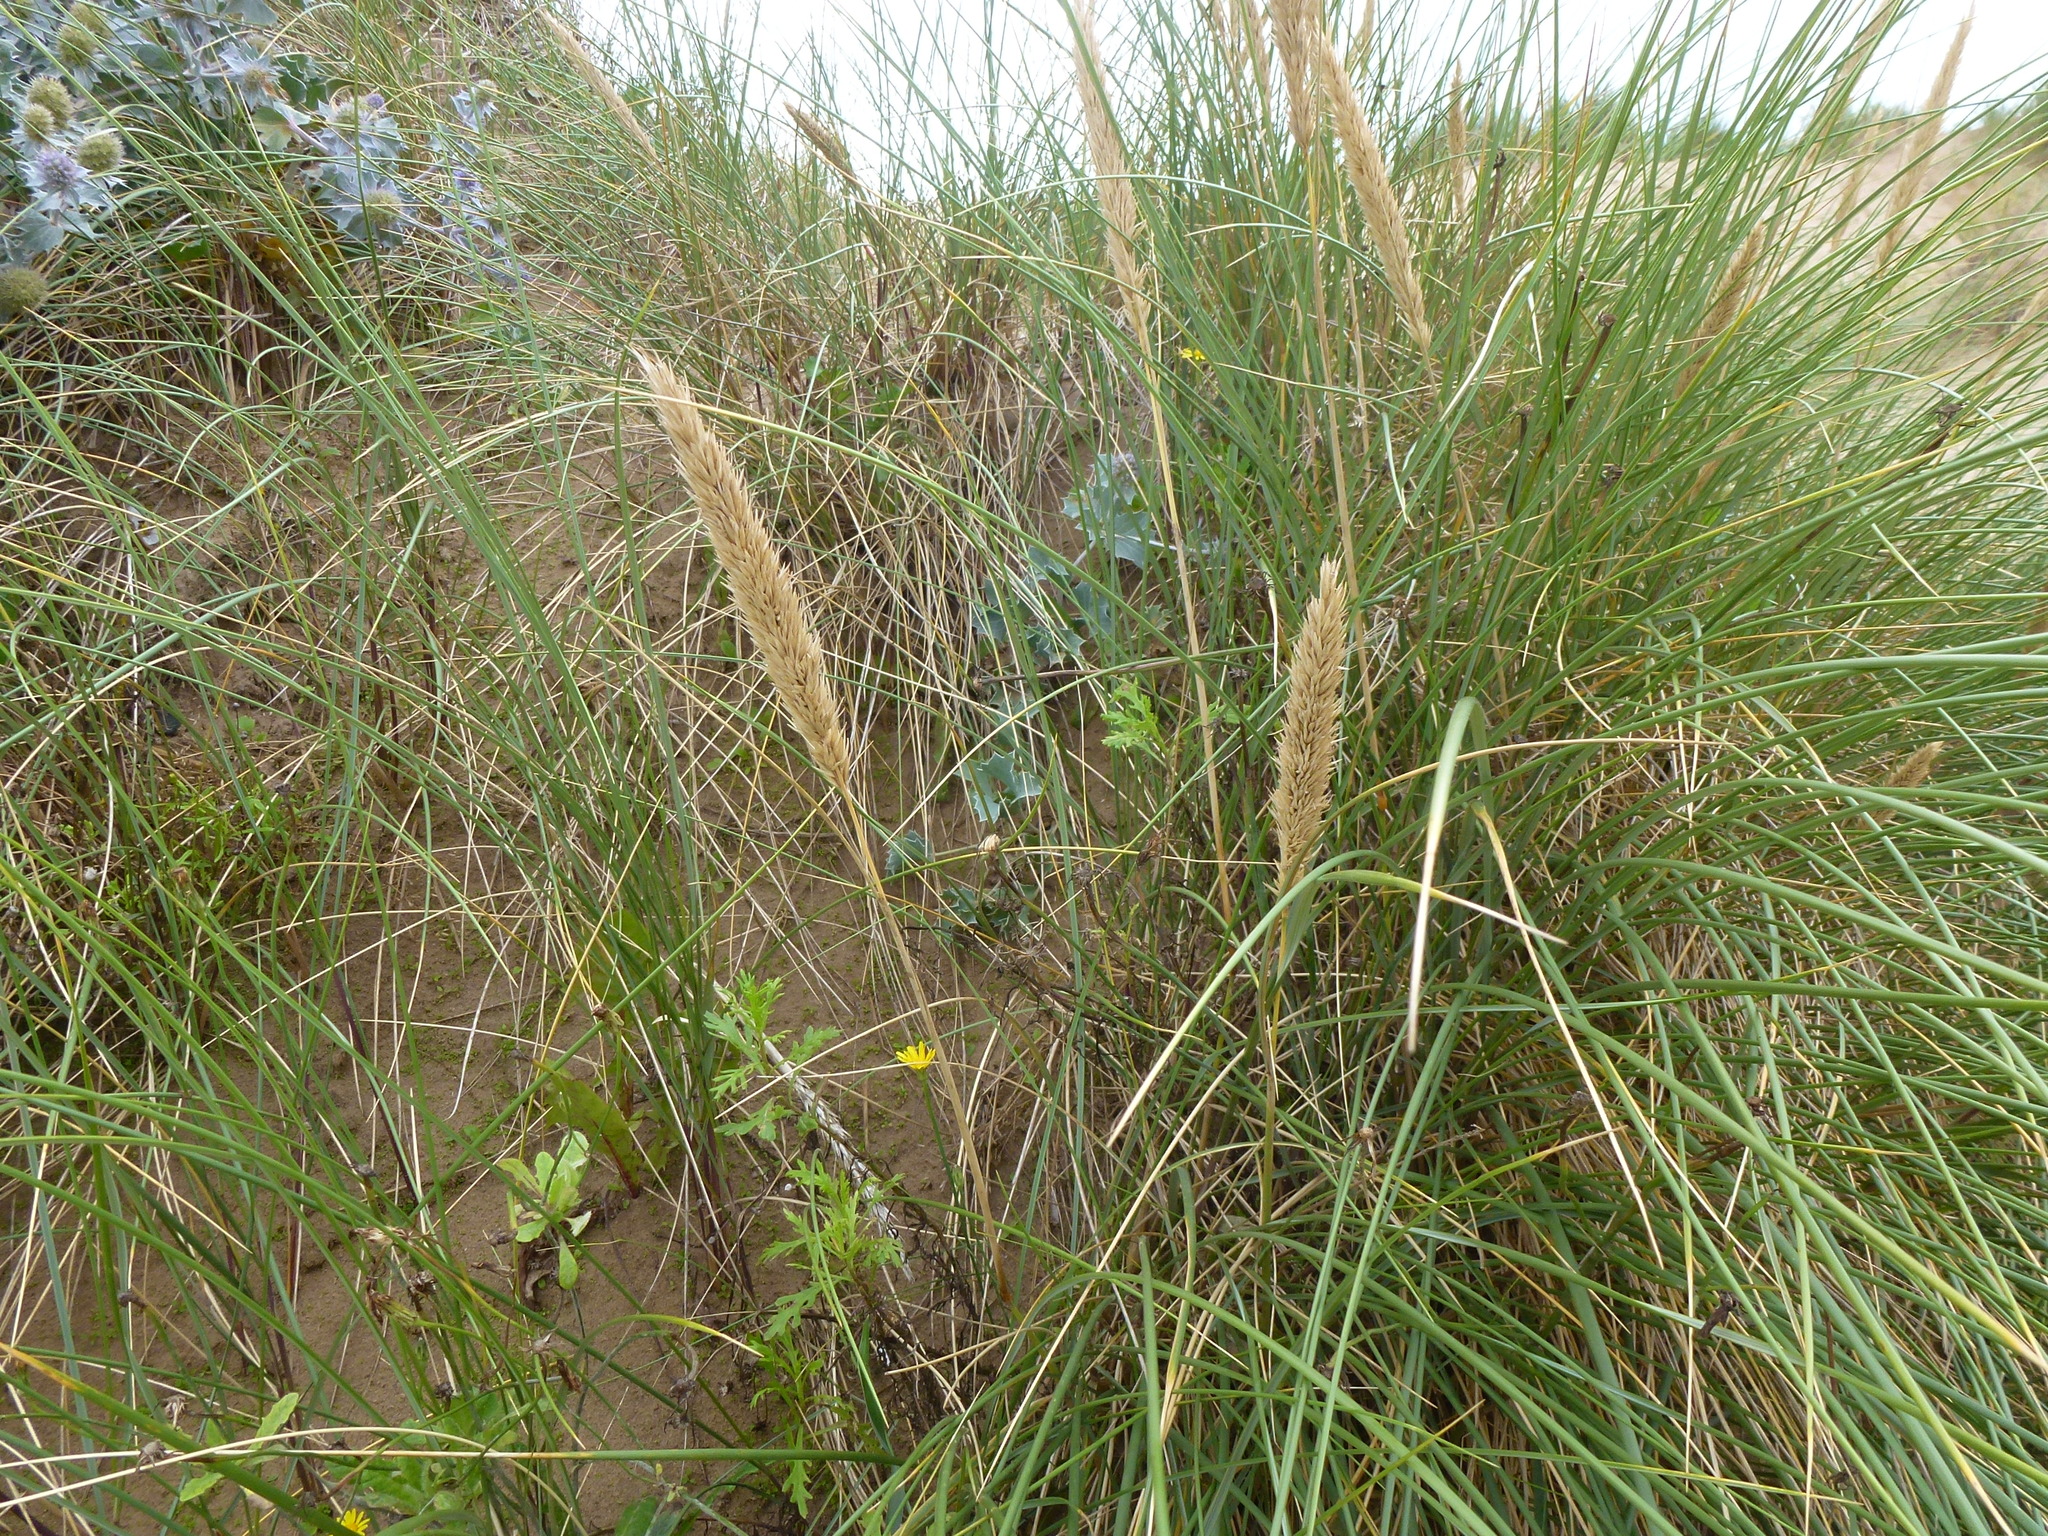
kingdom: Plantae
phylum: Tracheophyta
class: Liliopsida
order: Poales
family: Poaceae
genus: Calamagrostis
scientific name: Calamagrostis arenaria
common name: European beachgrass
